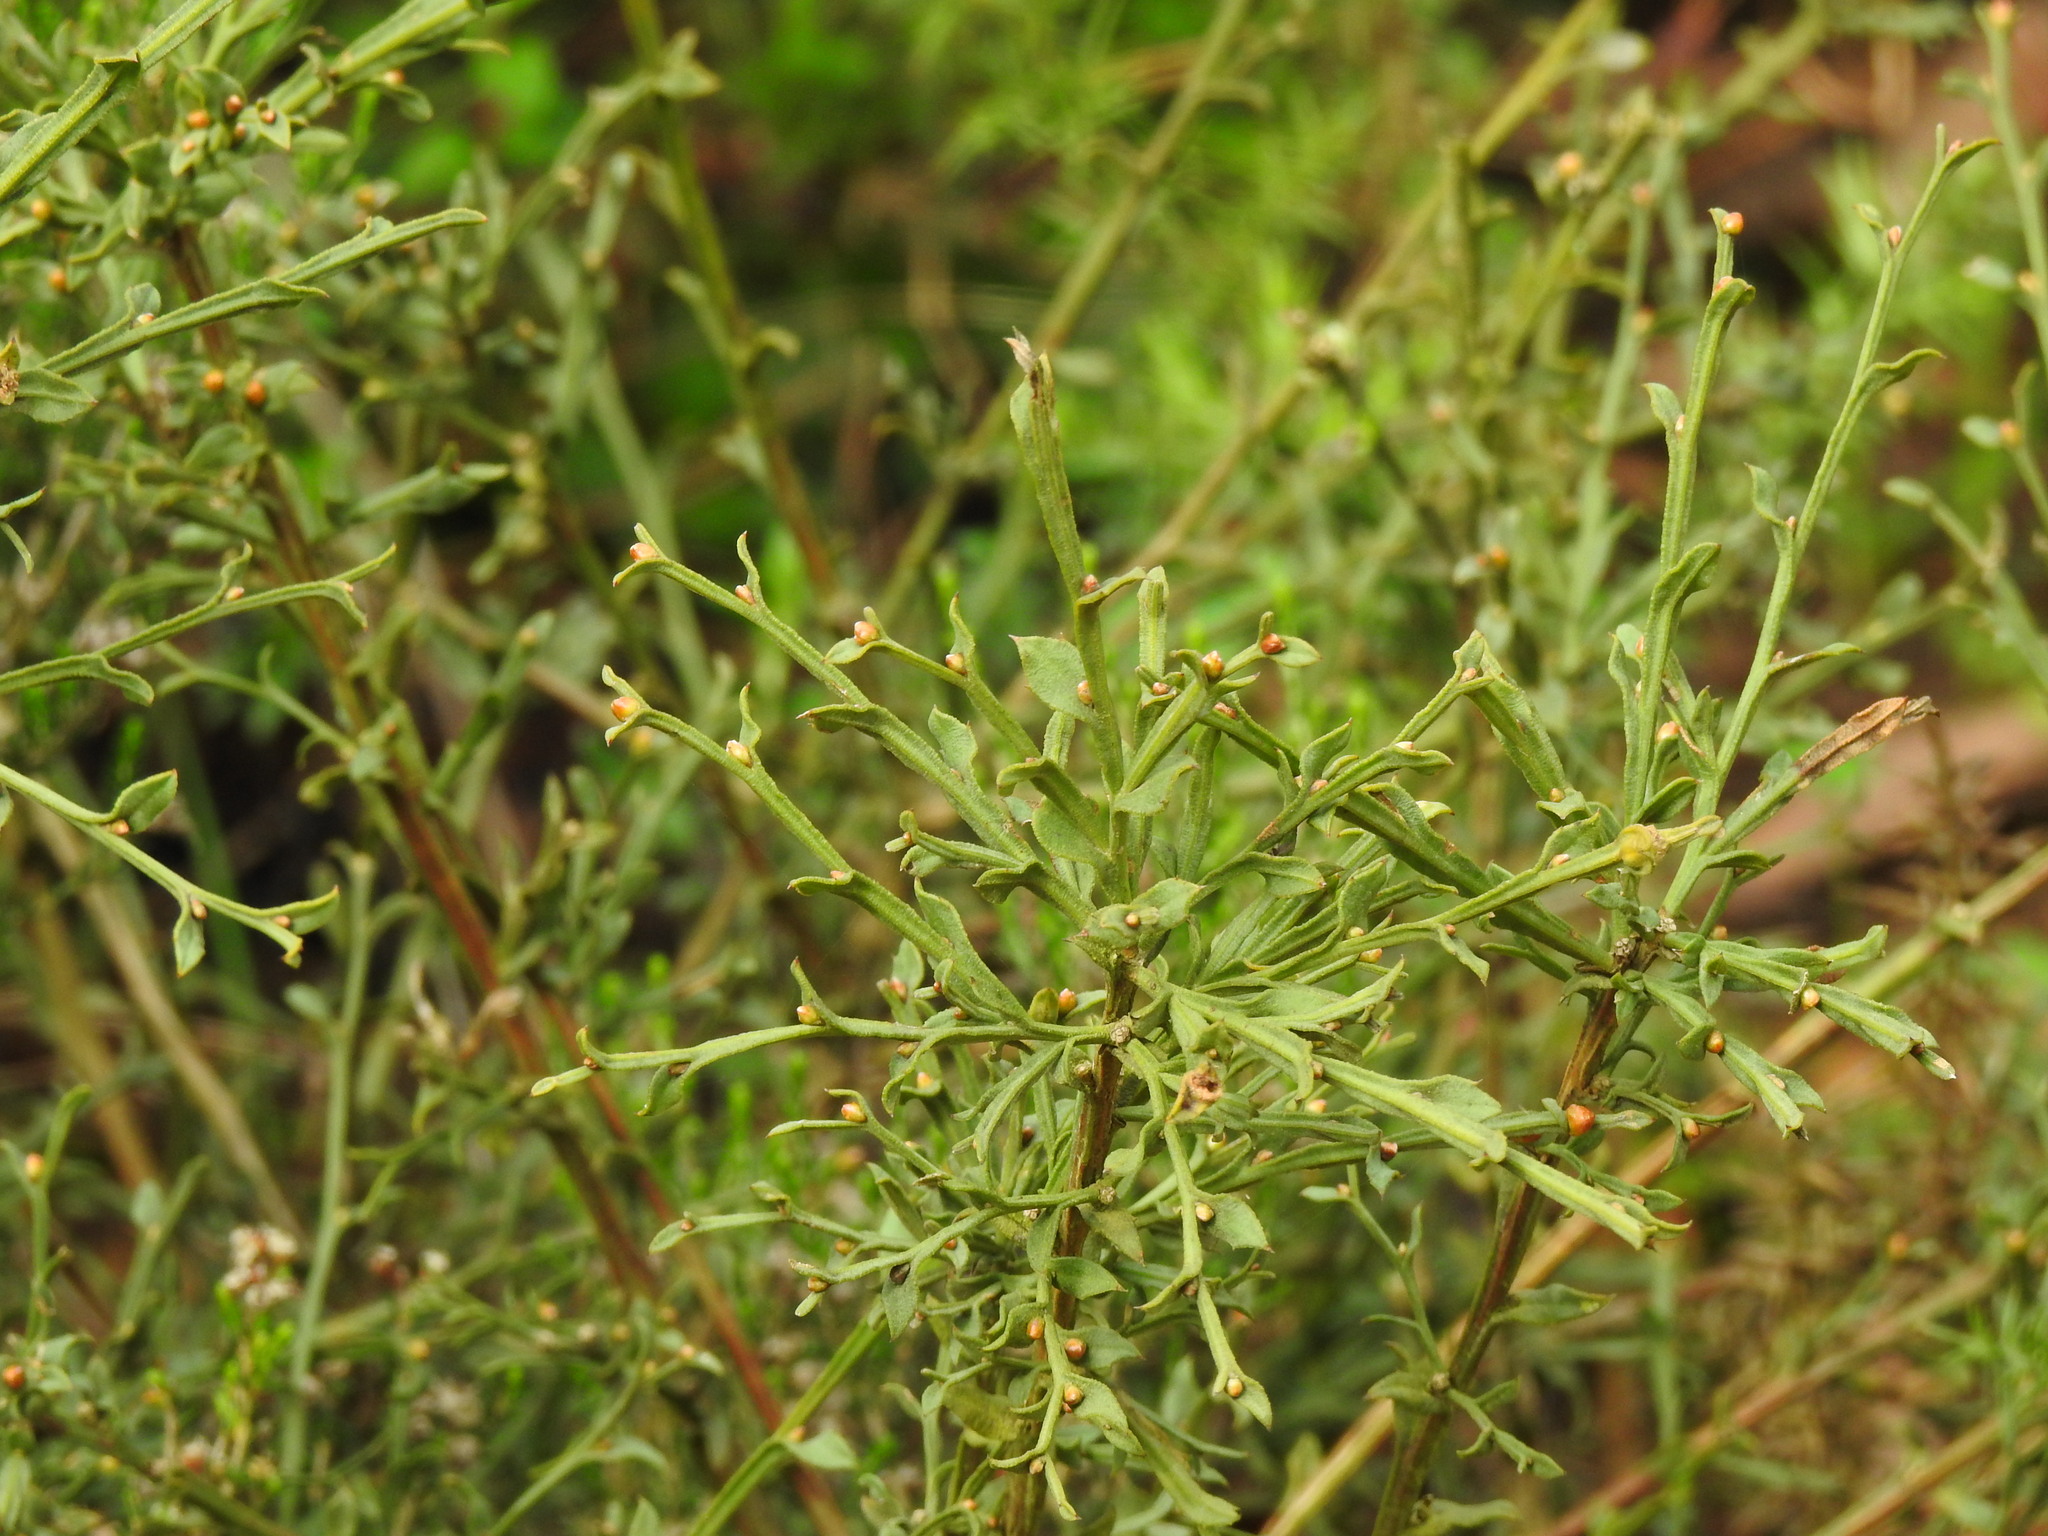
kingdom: Plantae
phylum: Tracheophyta
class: Magnoliopsida
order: Fabales
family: Fabaceae
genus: Genista
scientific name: Genista tridentata
